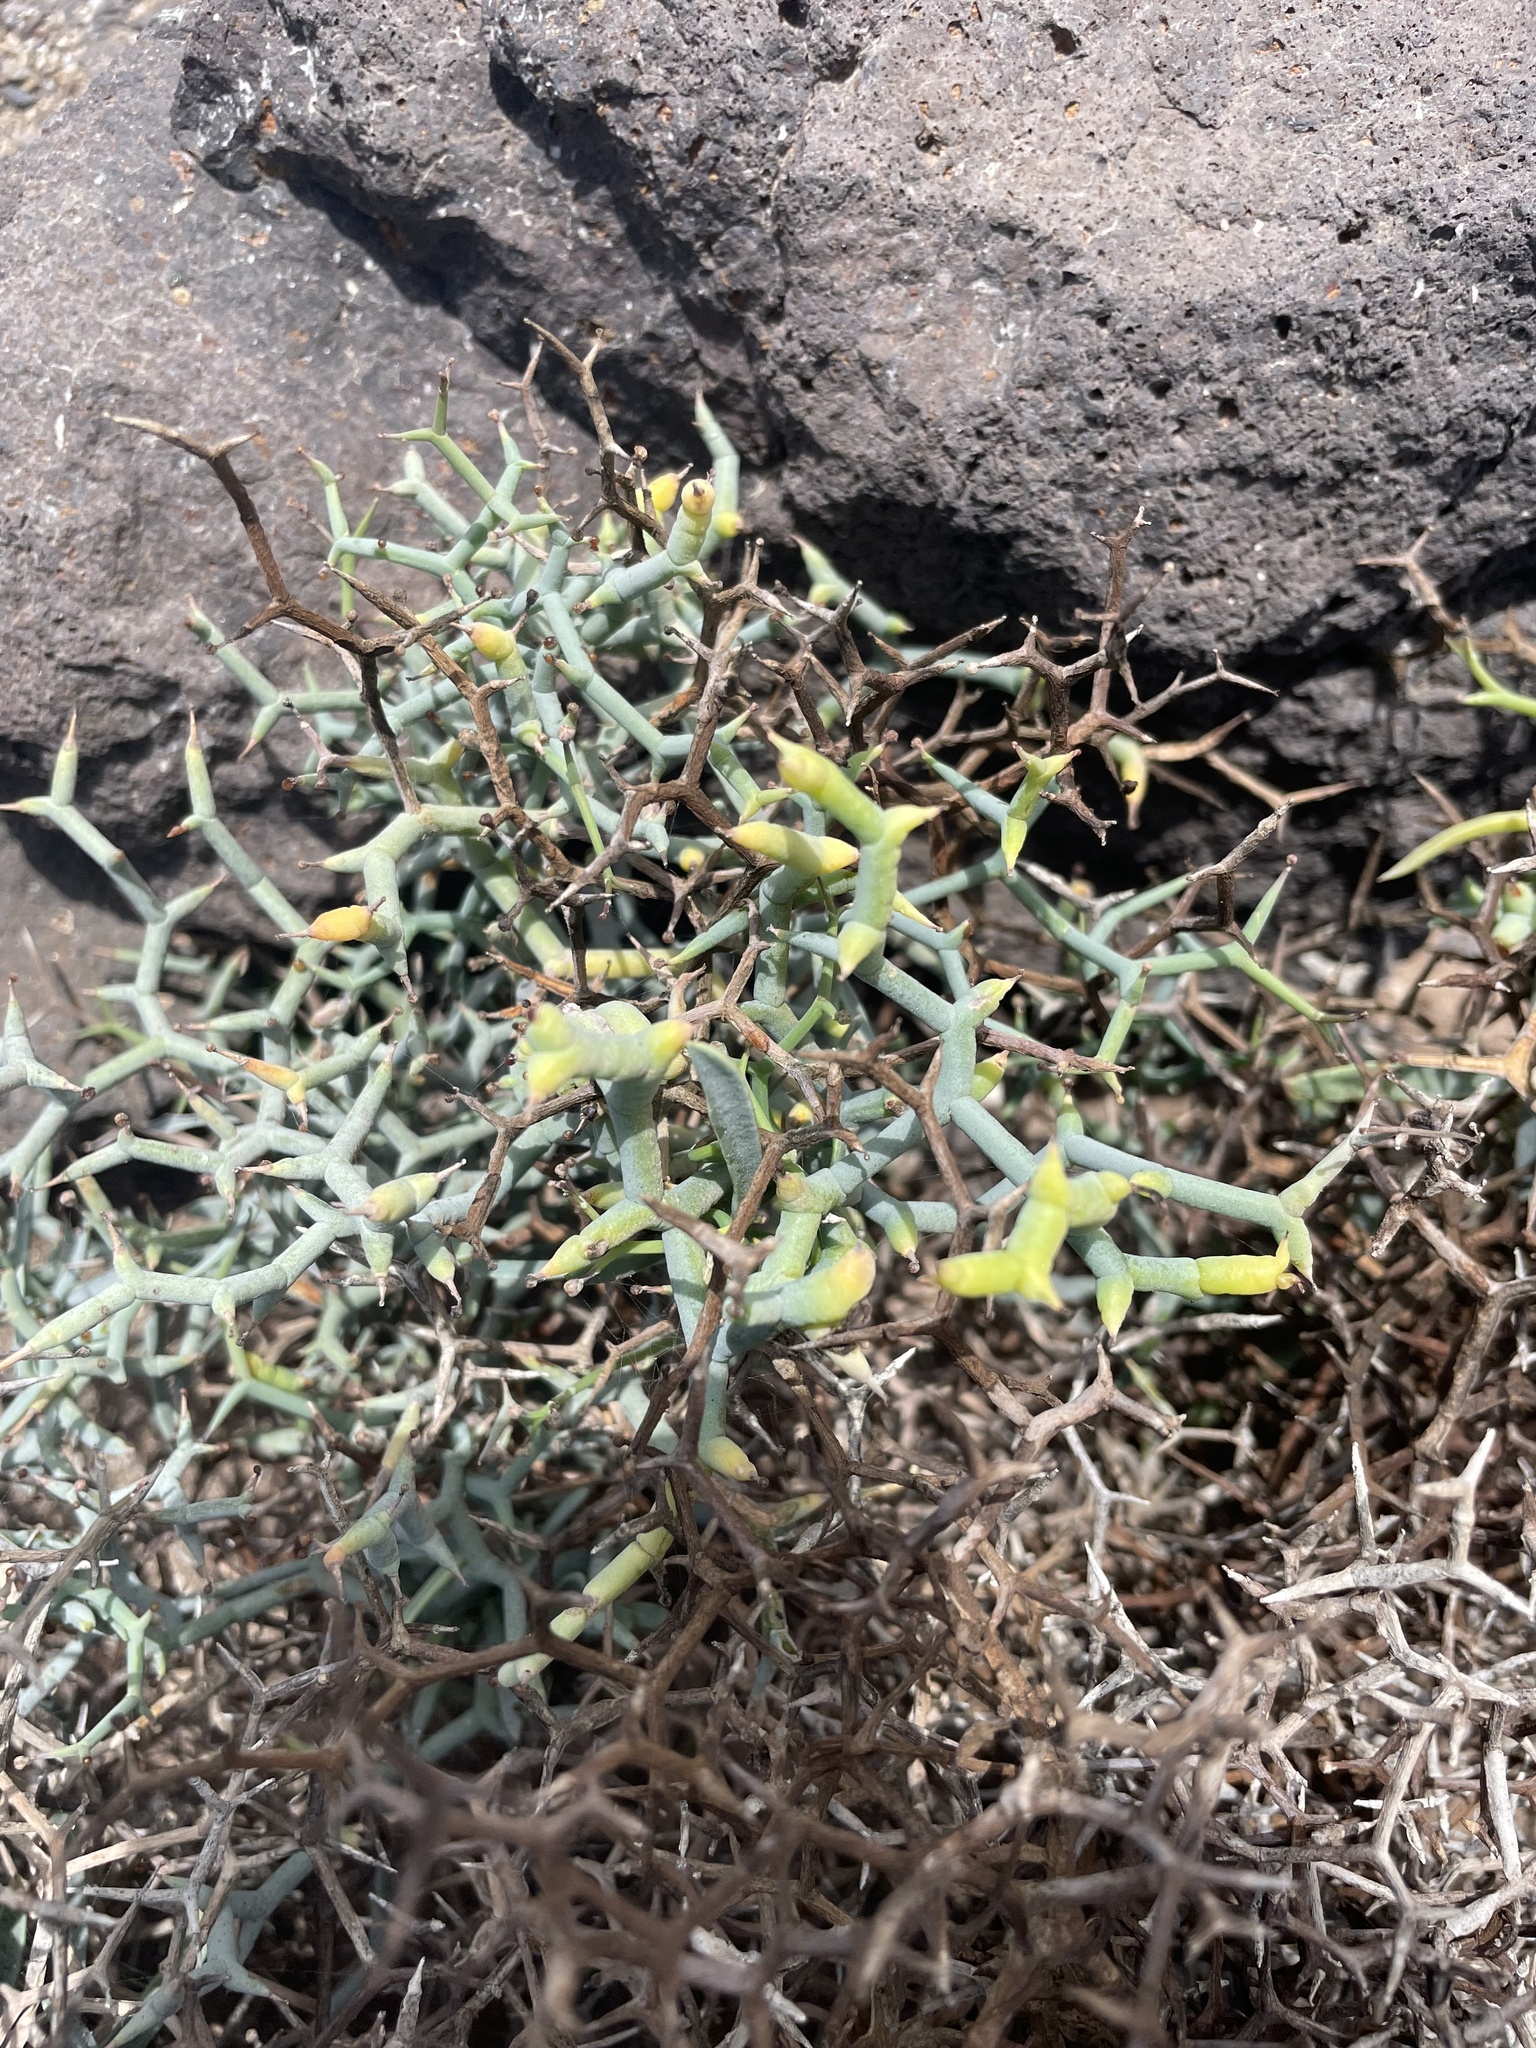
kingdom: Plantae
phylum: Tracheophyta
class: Magnoliopsida
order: Asterales
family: Asteraceae
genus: Launaea
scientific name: Launaea arborescens
